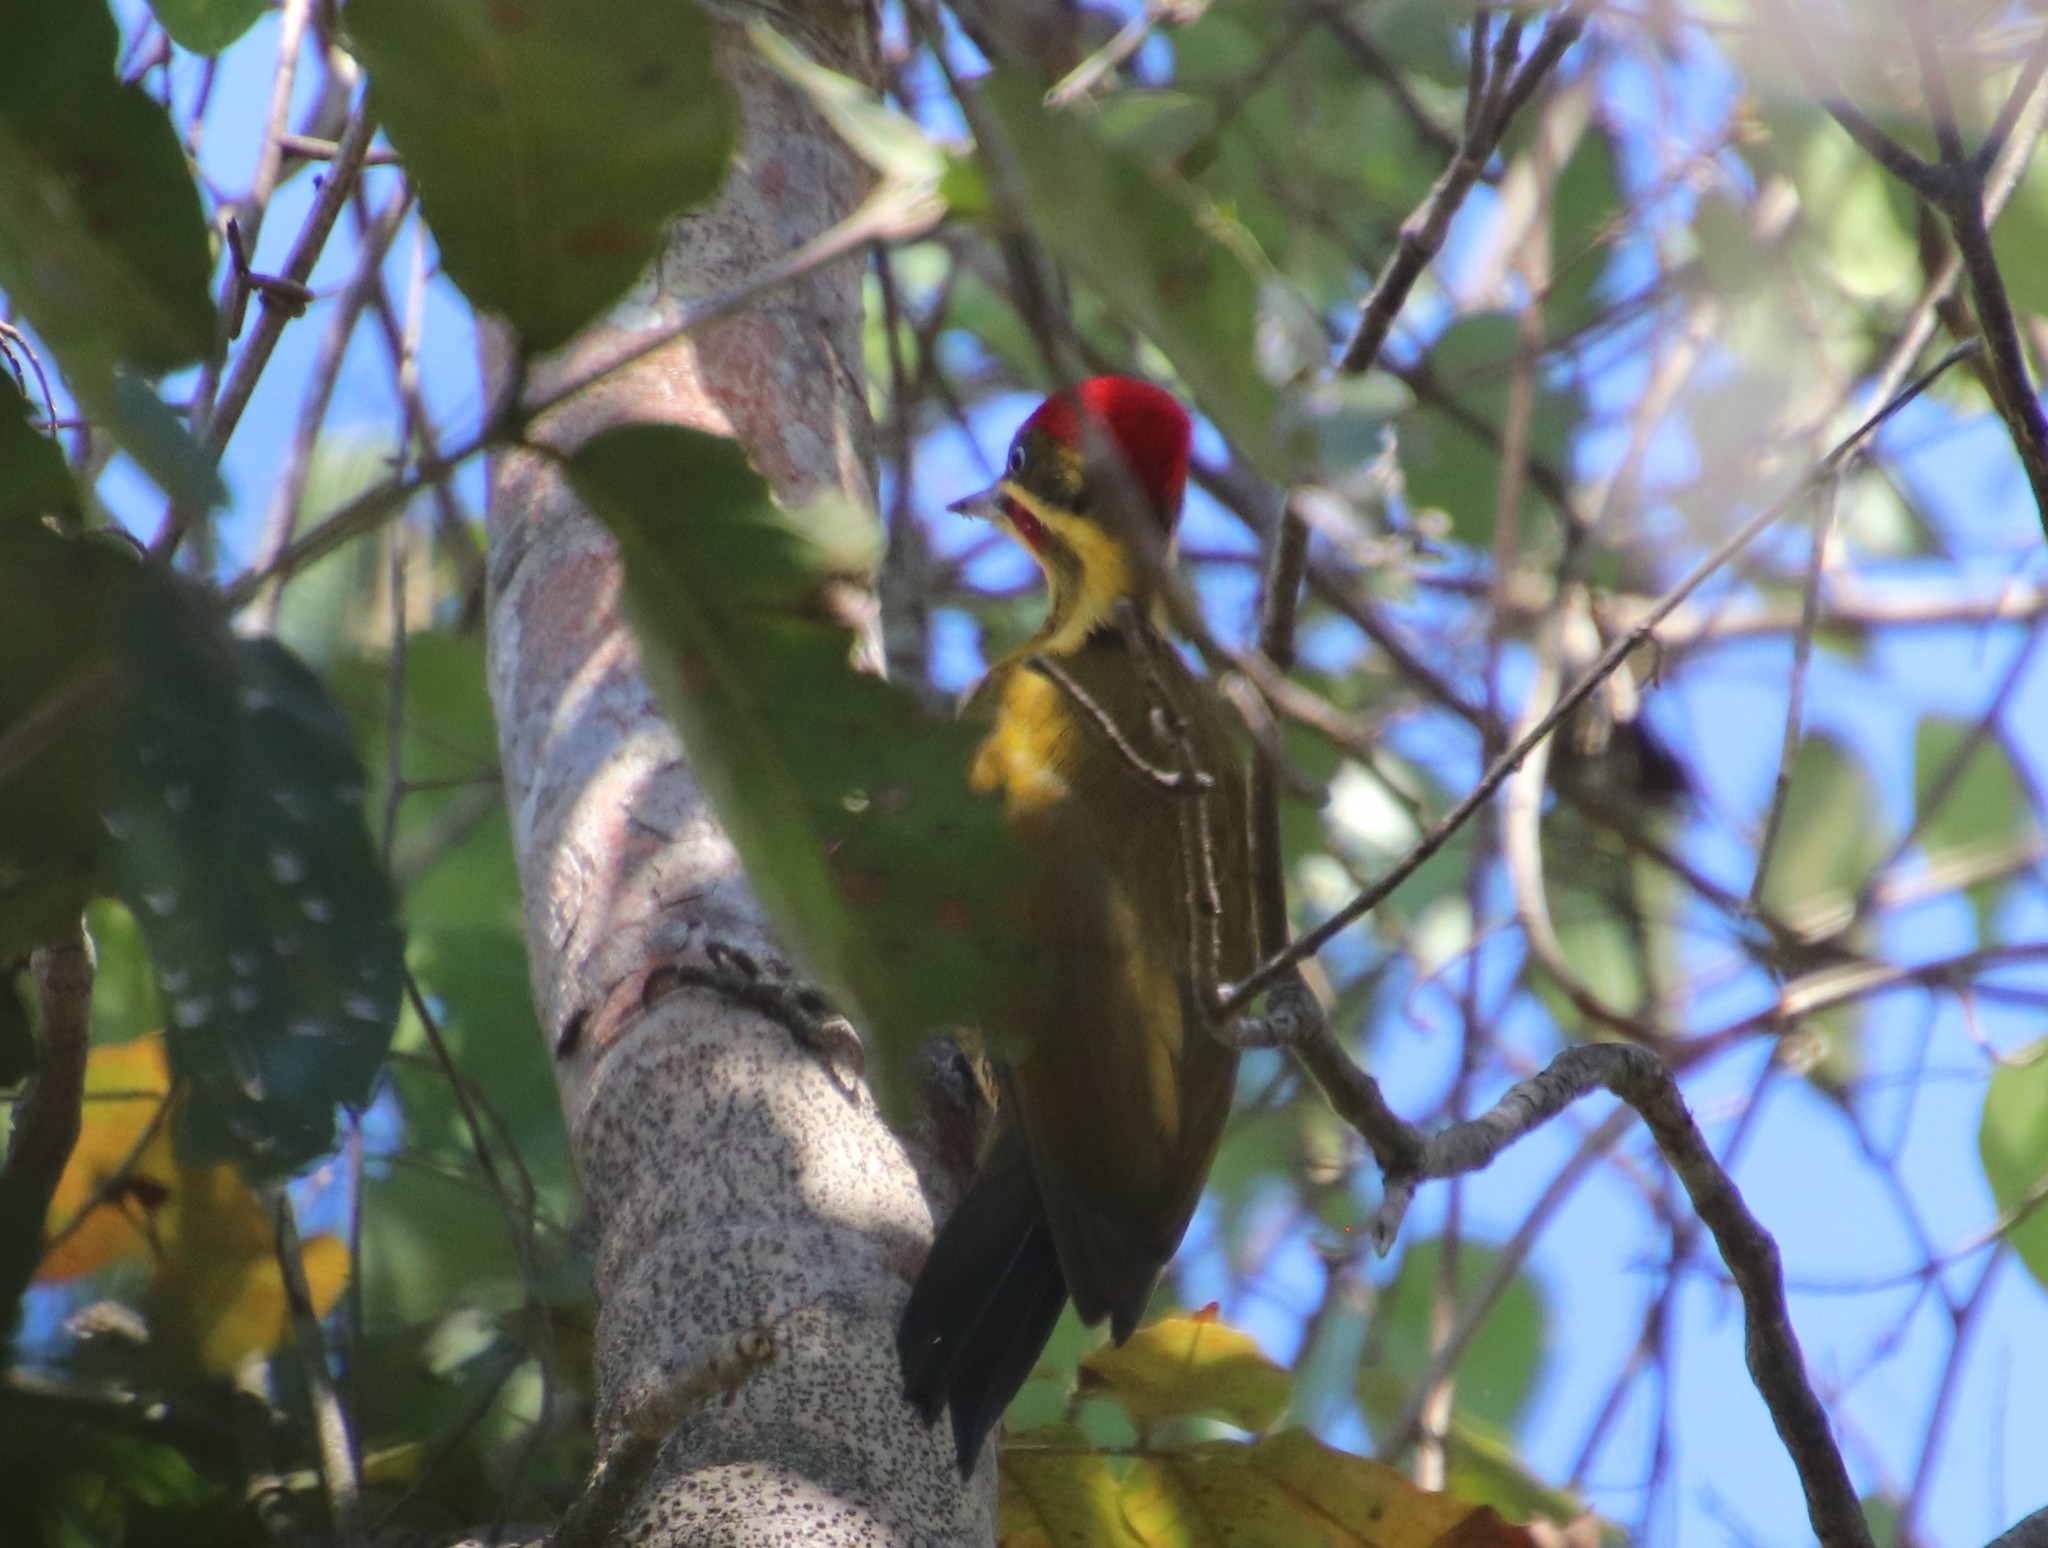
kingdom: Animalia
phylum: Chordata
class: Aves
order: Piciformes
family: Picidae
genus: Piculus
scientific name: Piculus chrysochloros
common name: Golden-green woodpecker
